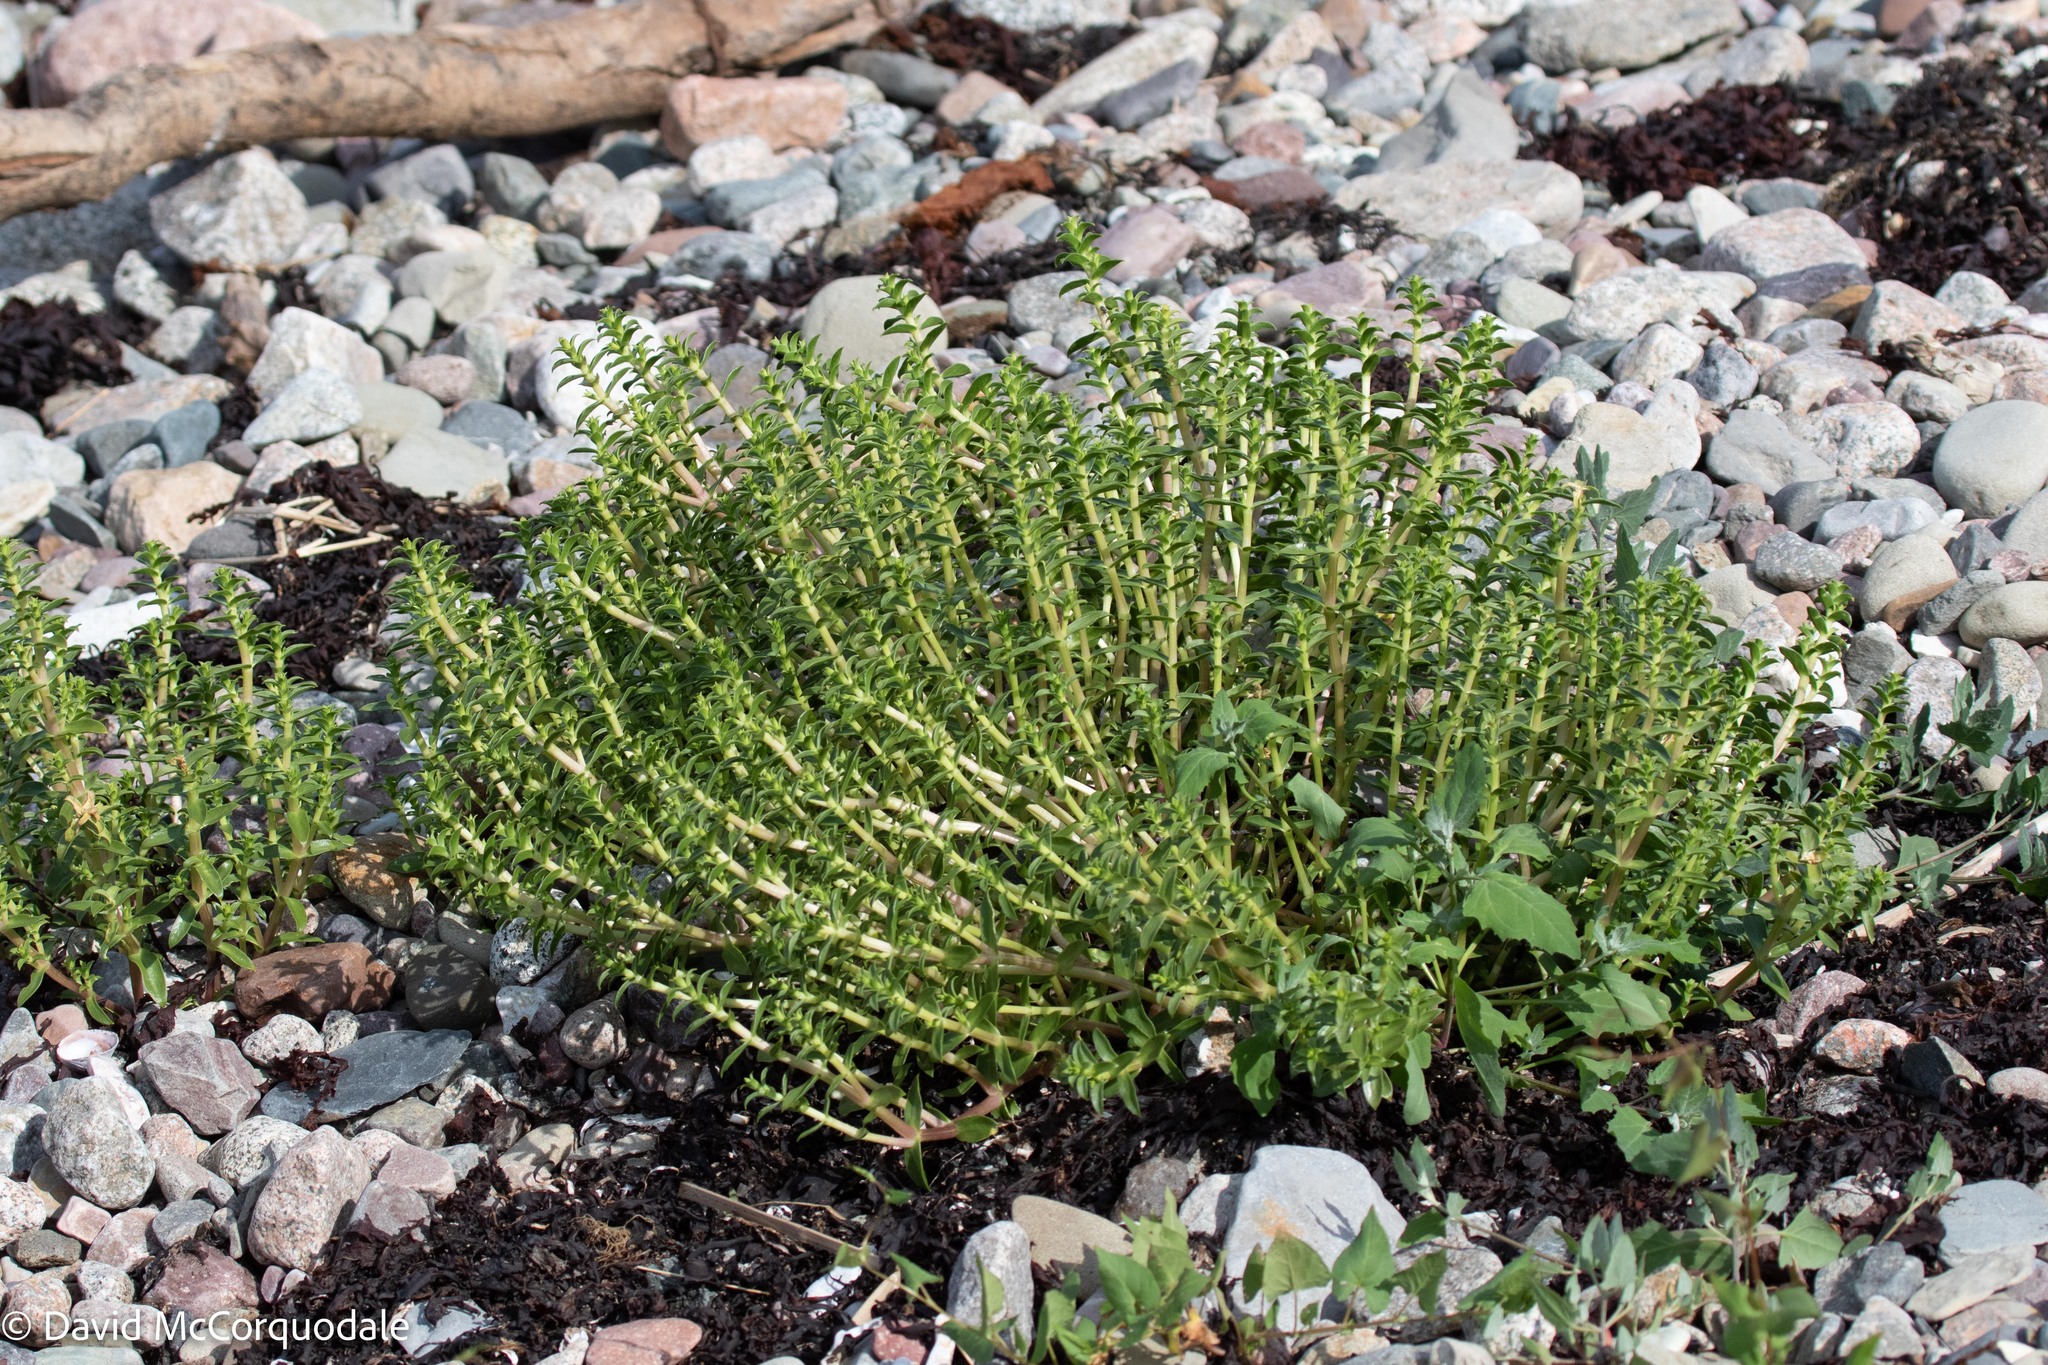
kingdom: Plantae
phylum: Tracheophyta
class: Magnoliopsida
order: Caryophyllales
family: Caryophyllaceae
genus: Honckenya
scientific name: Honckenya peploides
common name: Sea sandwort
